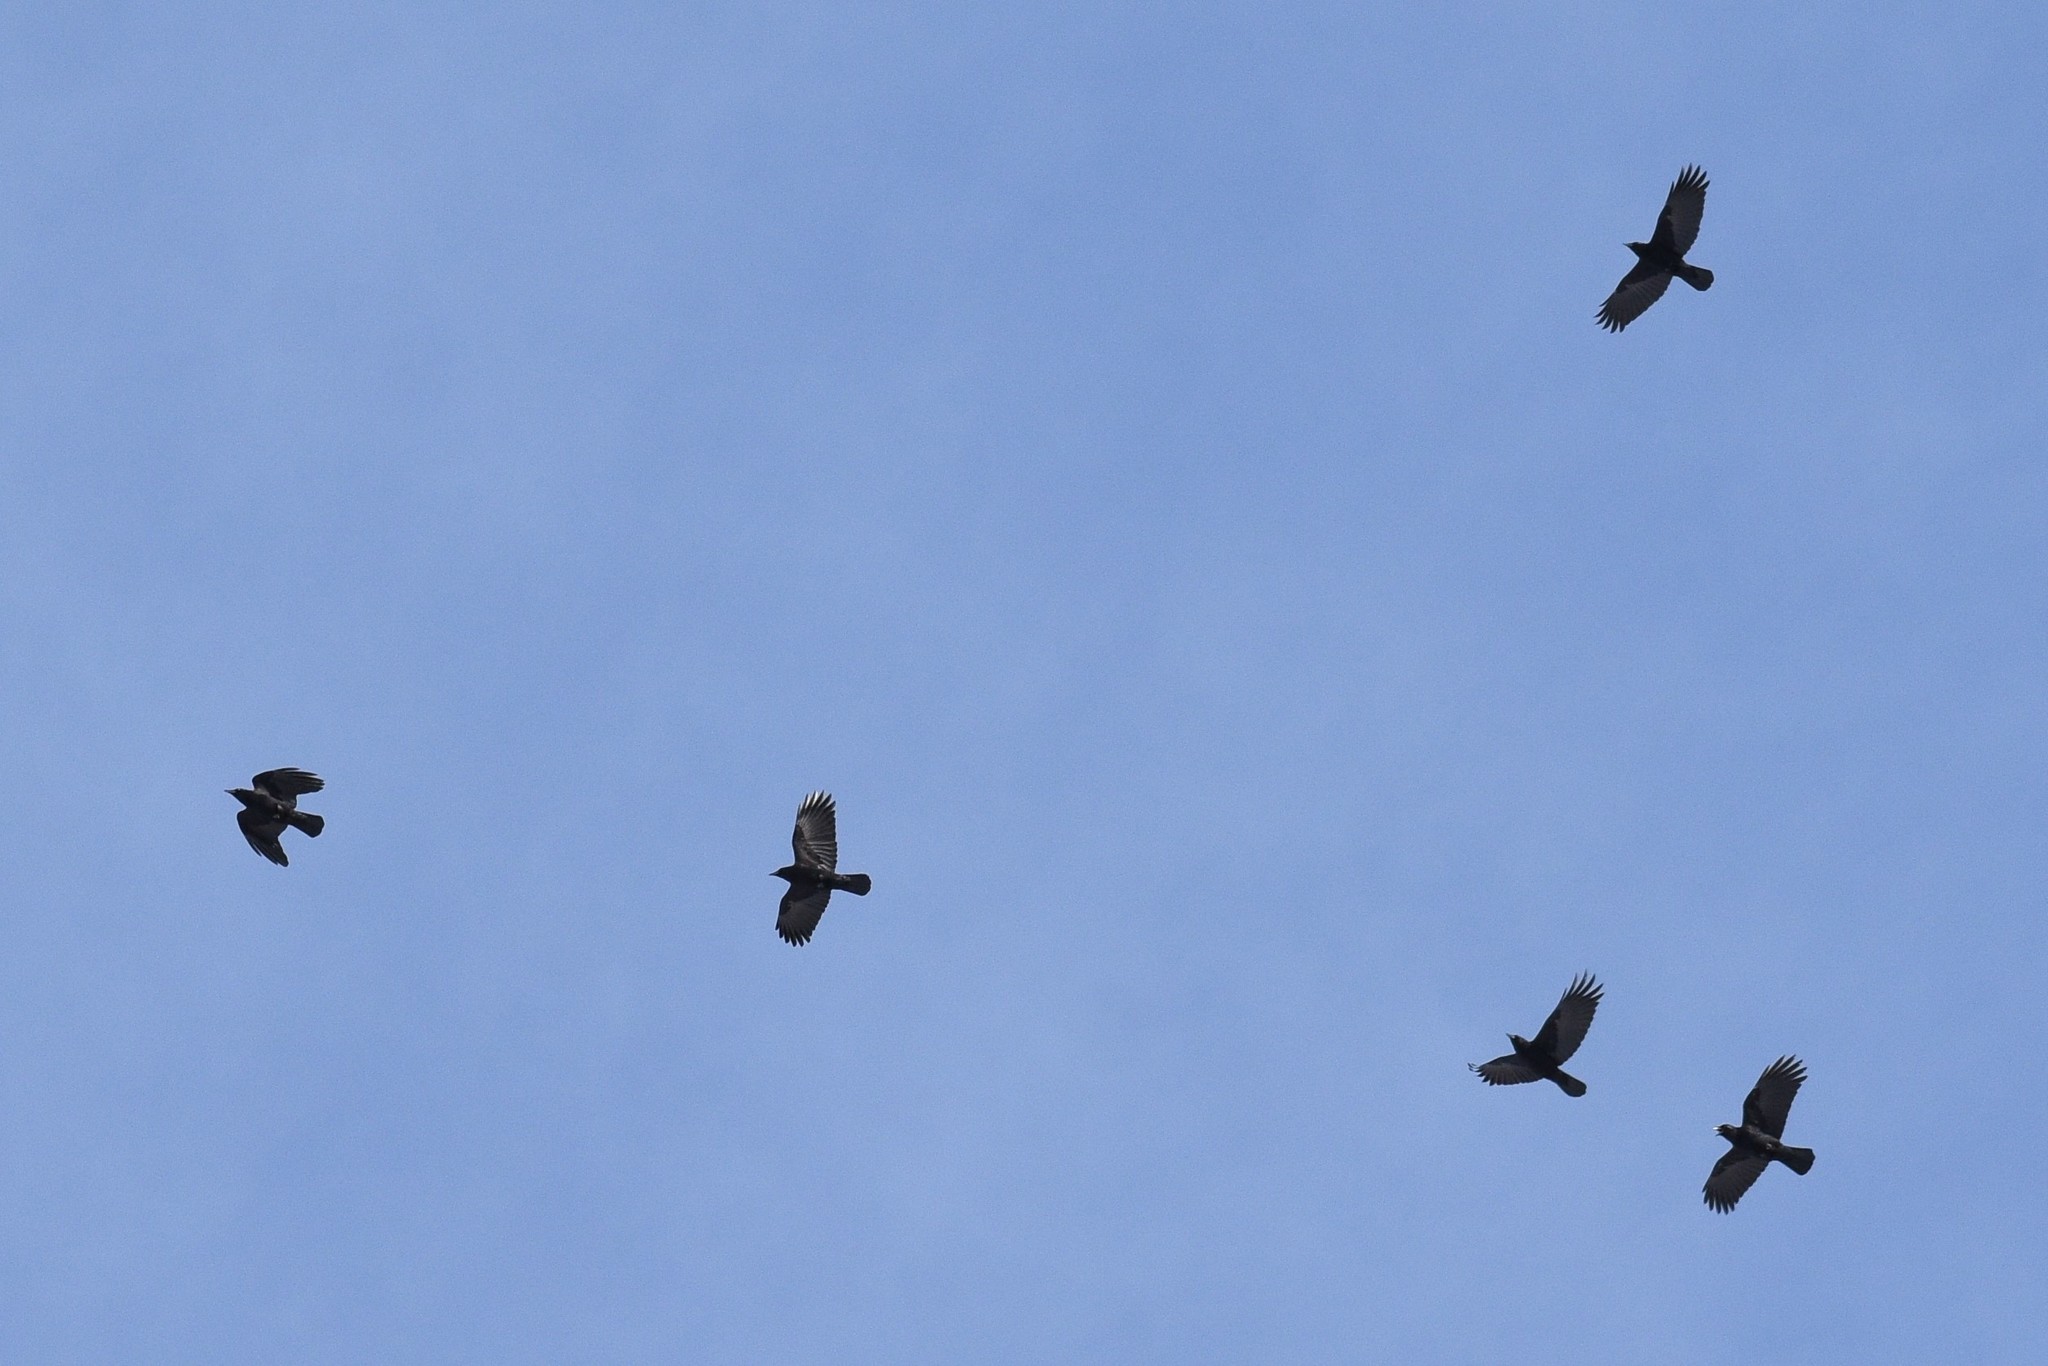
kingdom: Animalia
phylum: Chordata
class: Aves
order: Passeriformes
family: Corvidae
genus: Corvus
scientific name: Corvus brachyrhynchos
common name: American crow
